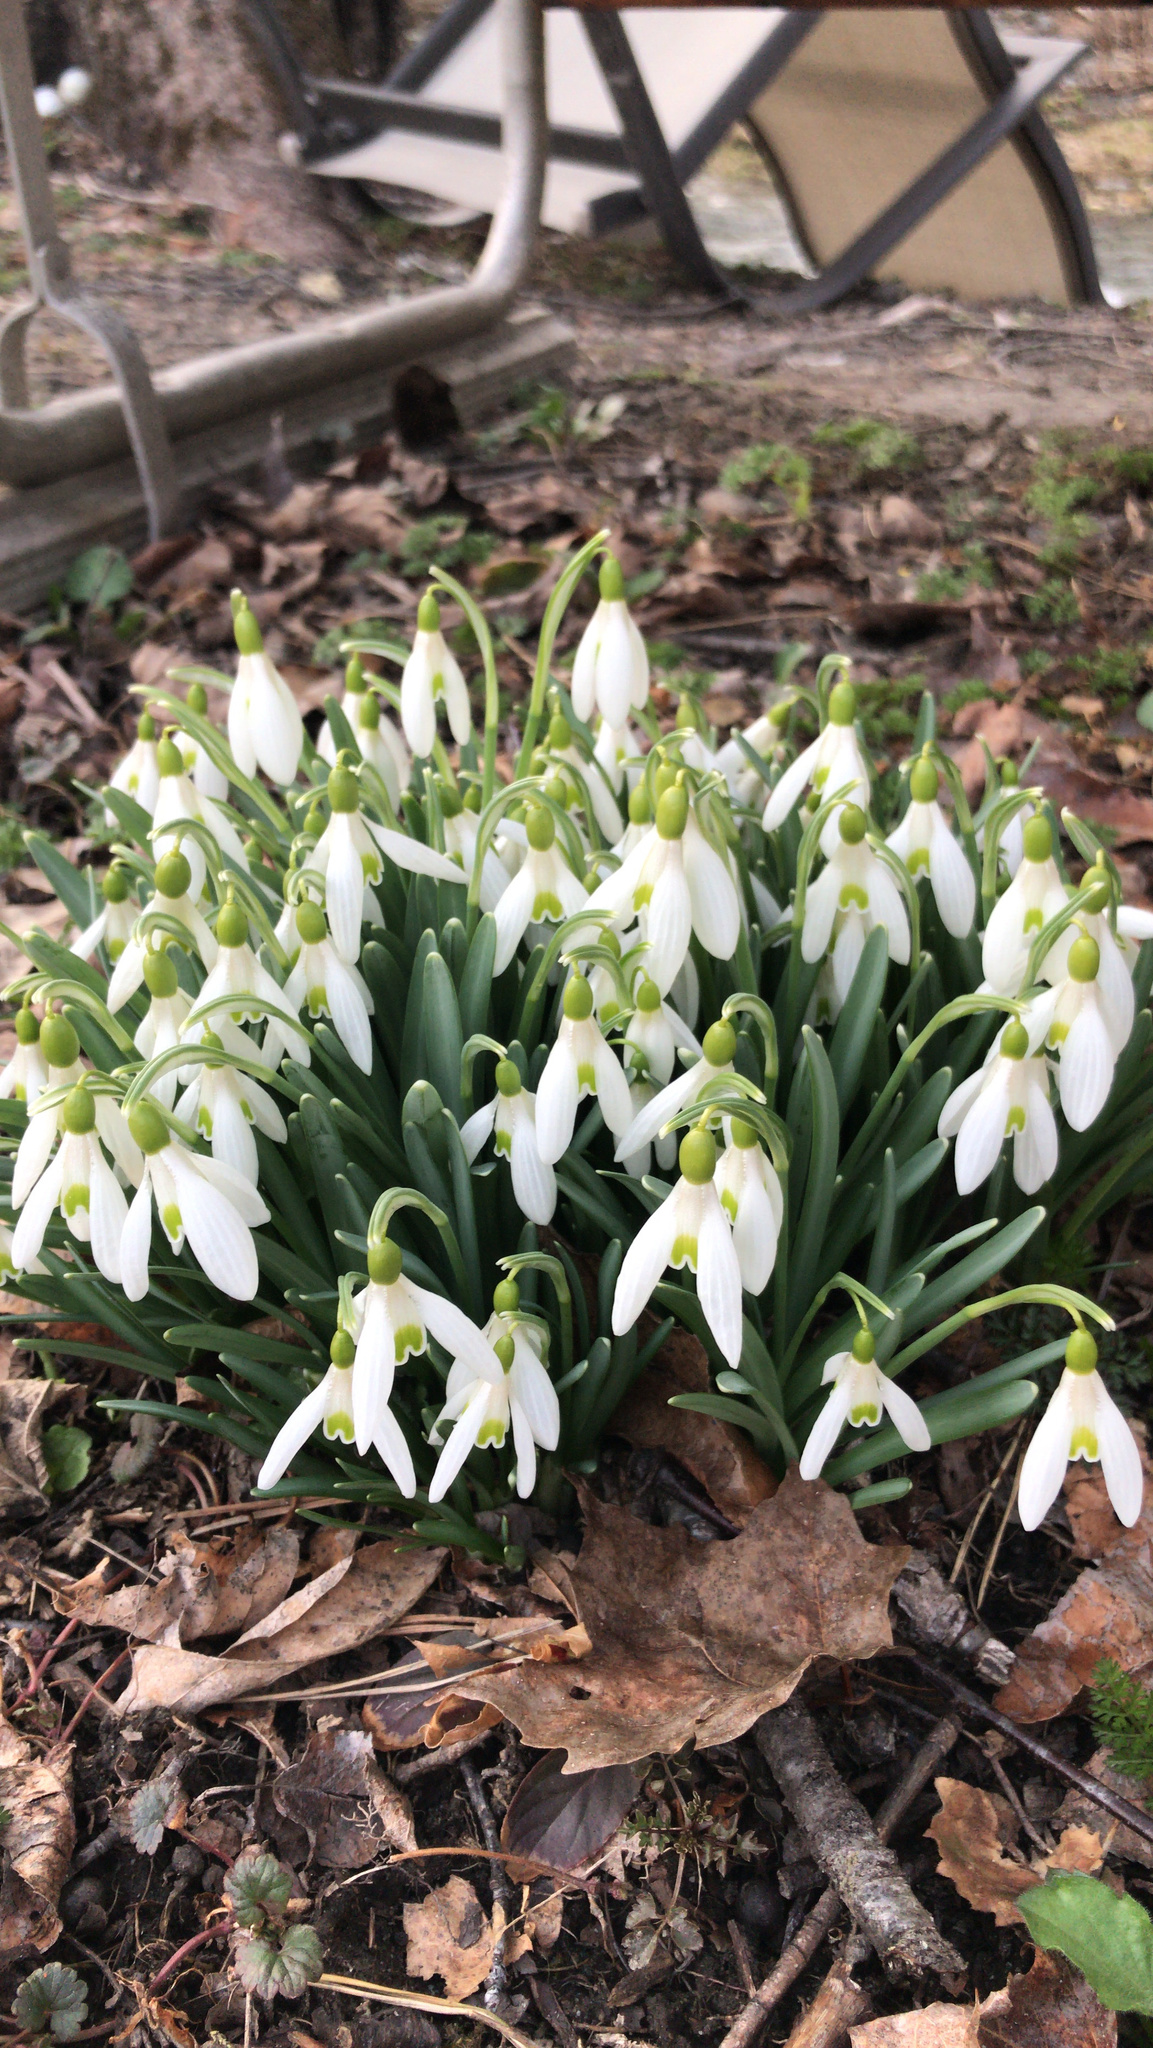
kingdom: Plantae
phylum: Tracheophyta
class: Liliopsida
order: Asparagales
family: Amaryllidaceae
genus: Galanthus
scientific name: Galanthus nivalis
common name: Snowdrop
